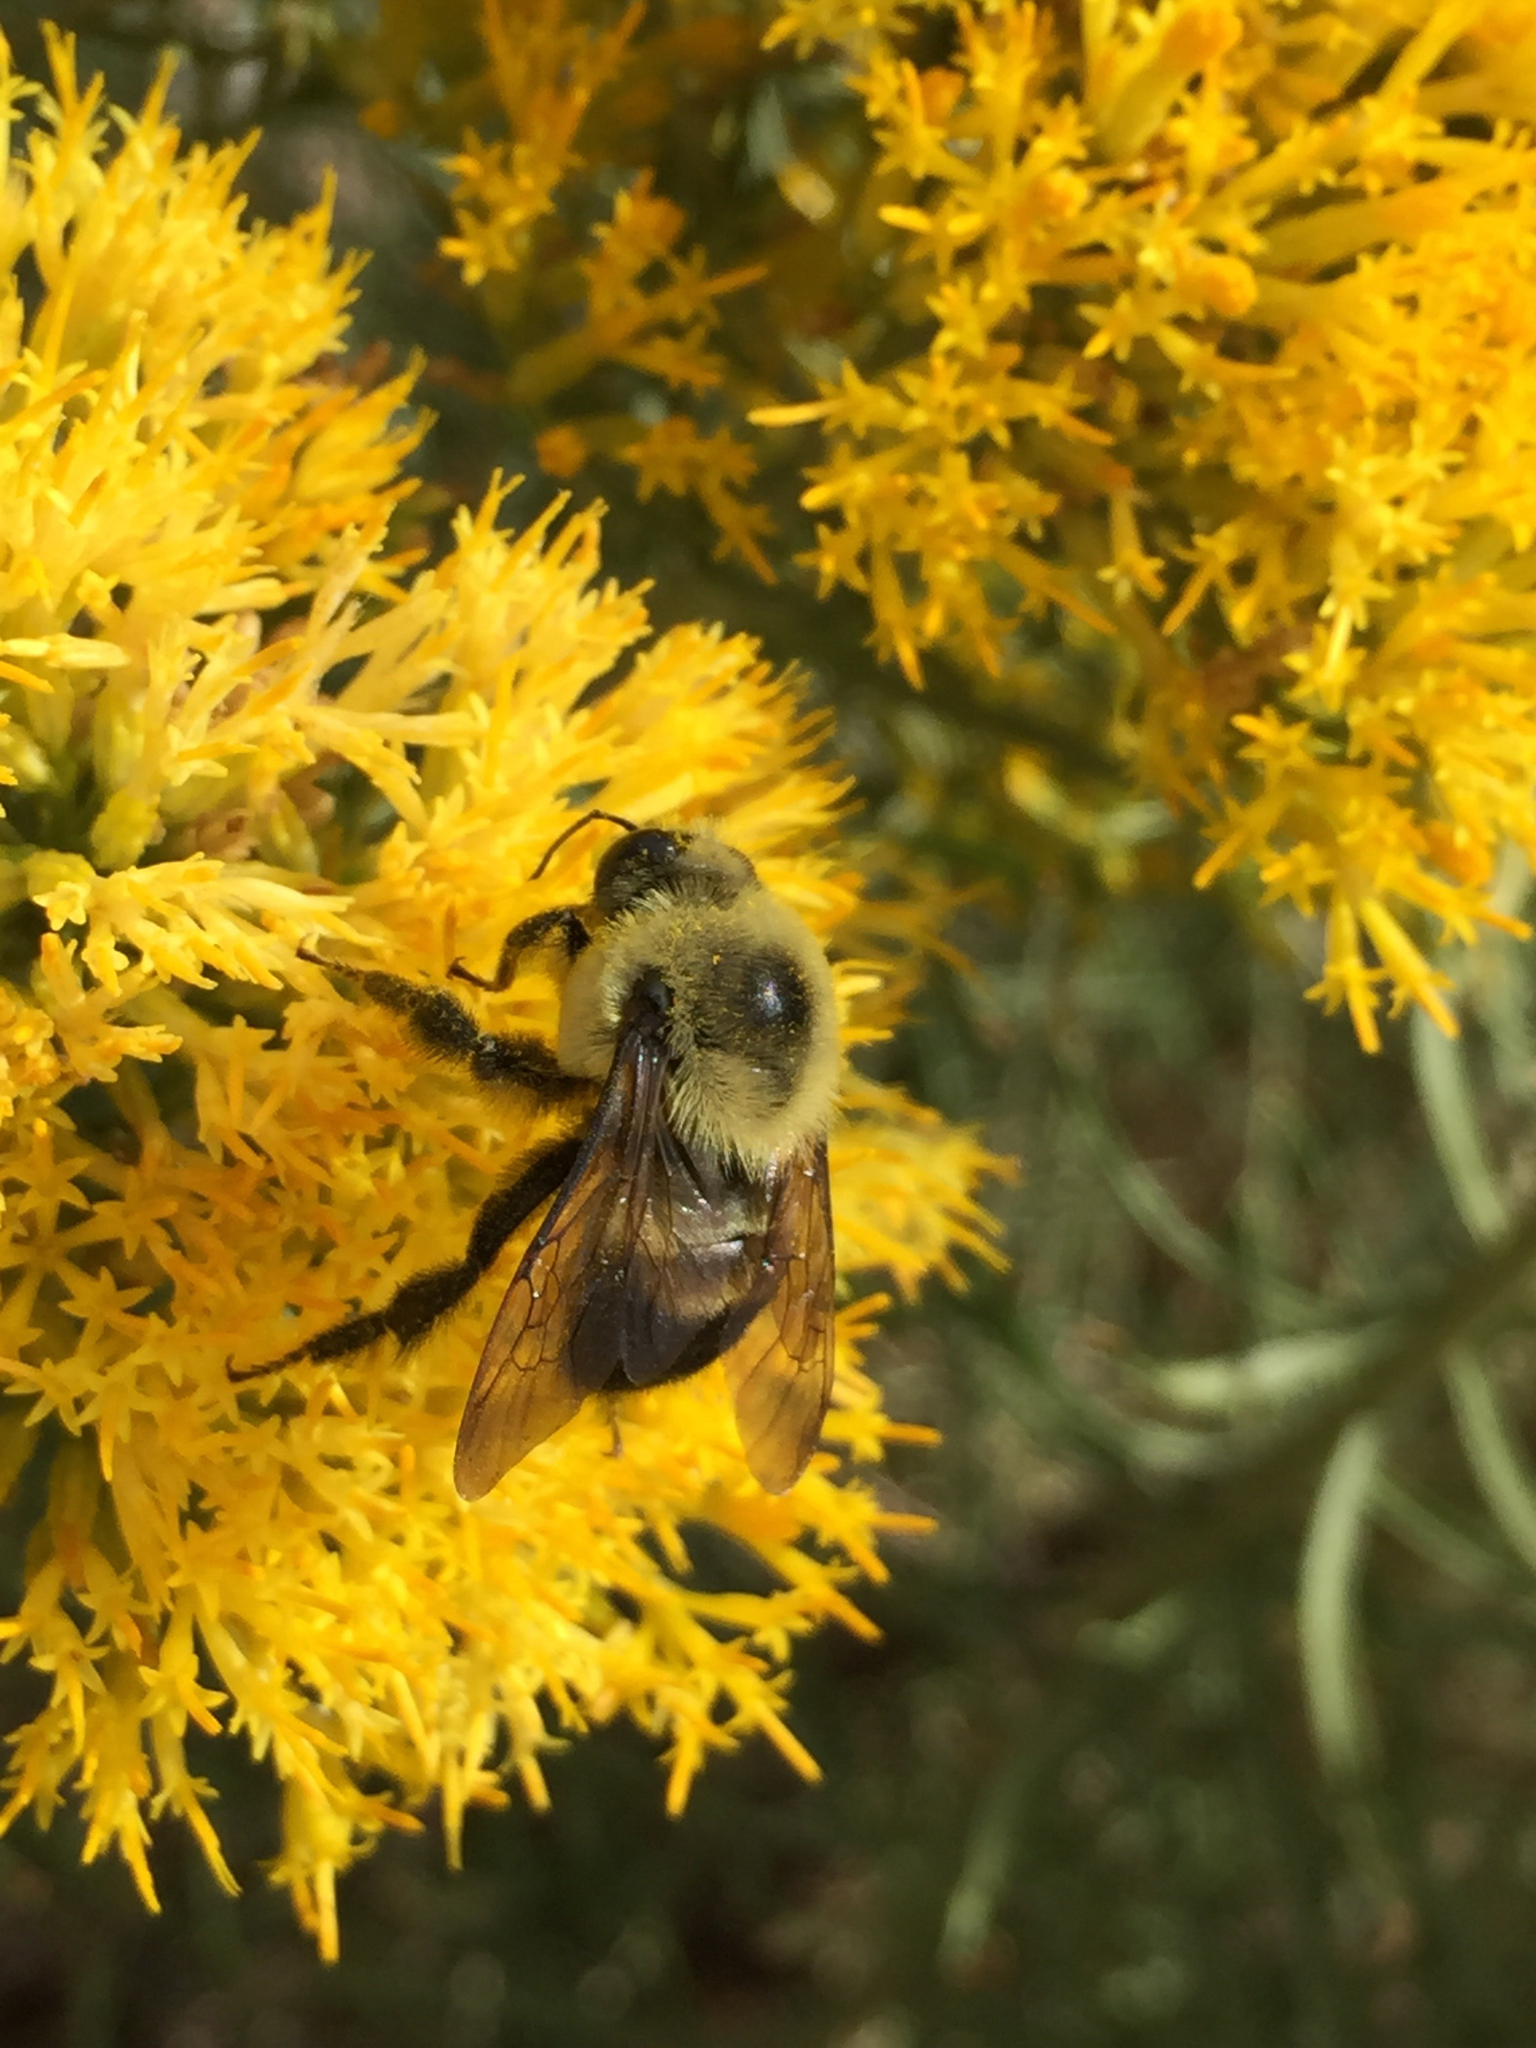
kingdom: Animalia
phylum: Arthropoda
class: Insecta
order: Hymenoptera
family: Apidae
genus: Bombus
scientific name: Bombus griseocollis
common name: Brown-belted bumble bee
